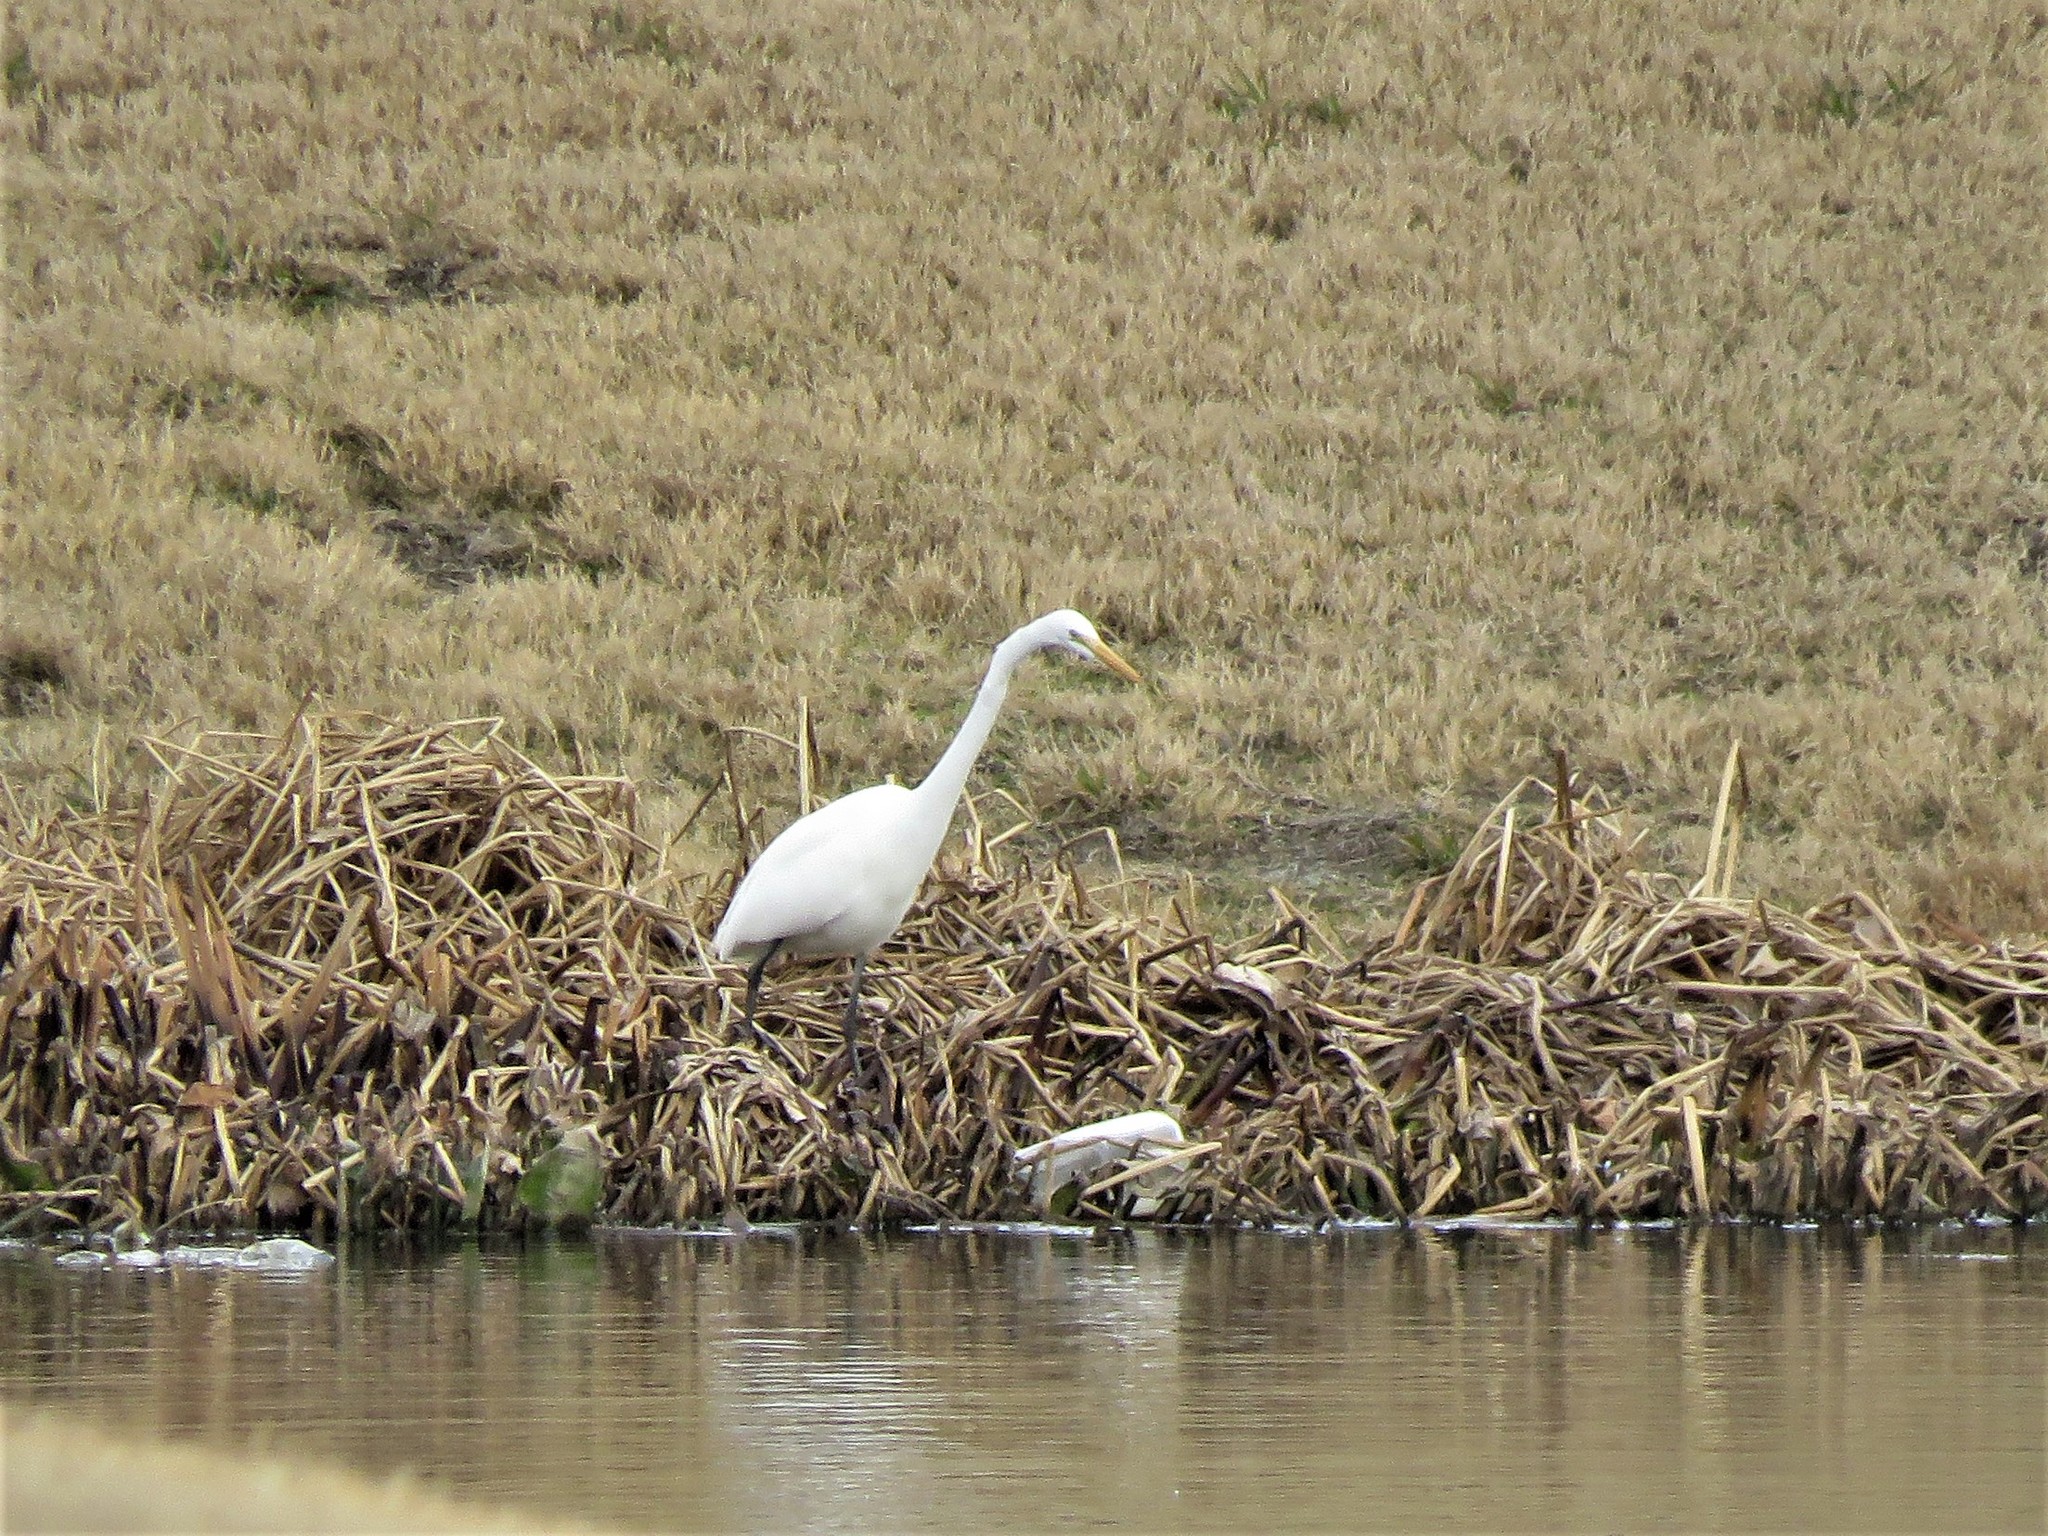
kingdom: Animalia
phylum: Chordata
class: Aves
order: Pelecaniformes
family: Ardeidae
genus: Ardea
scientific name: Ardea alba
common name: Great egret
